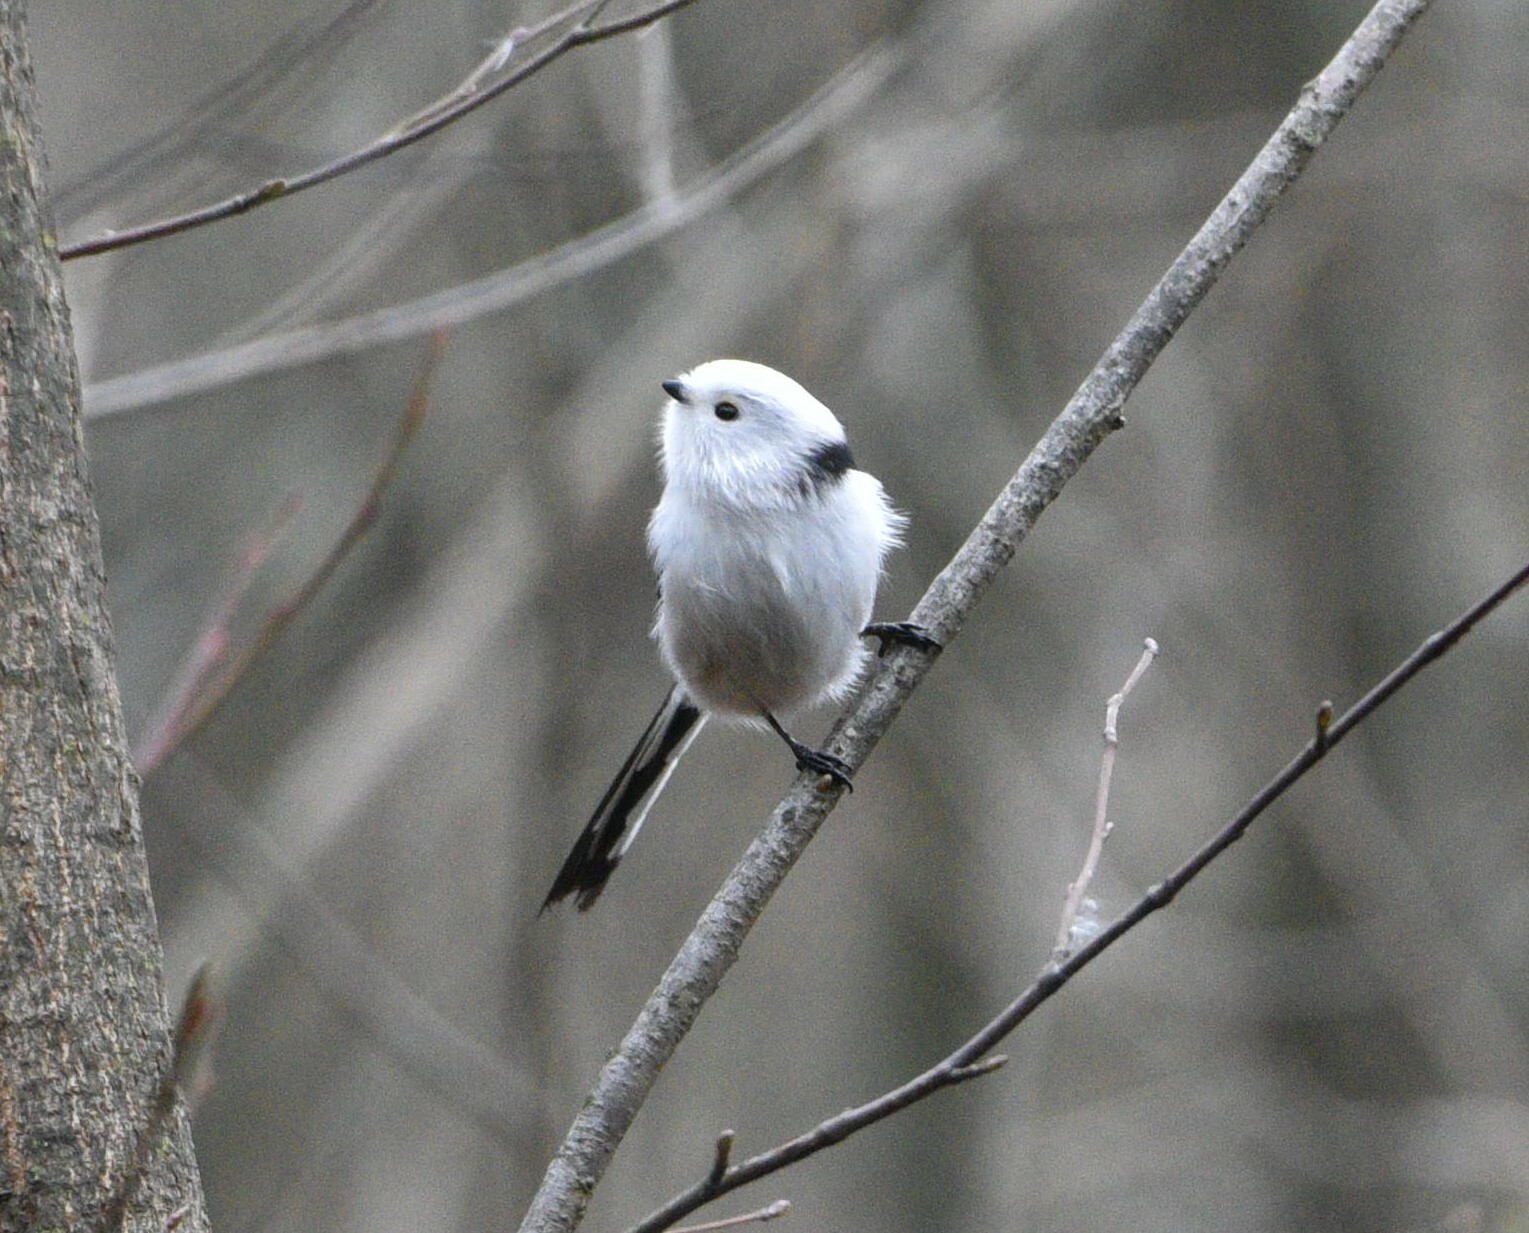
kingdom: Animalia
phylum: Chordata
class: Aves
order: Passeriformes
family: Aegithalidae
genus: Aegithalos
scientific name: Aegithalos caudatus
